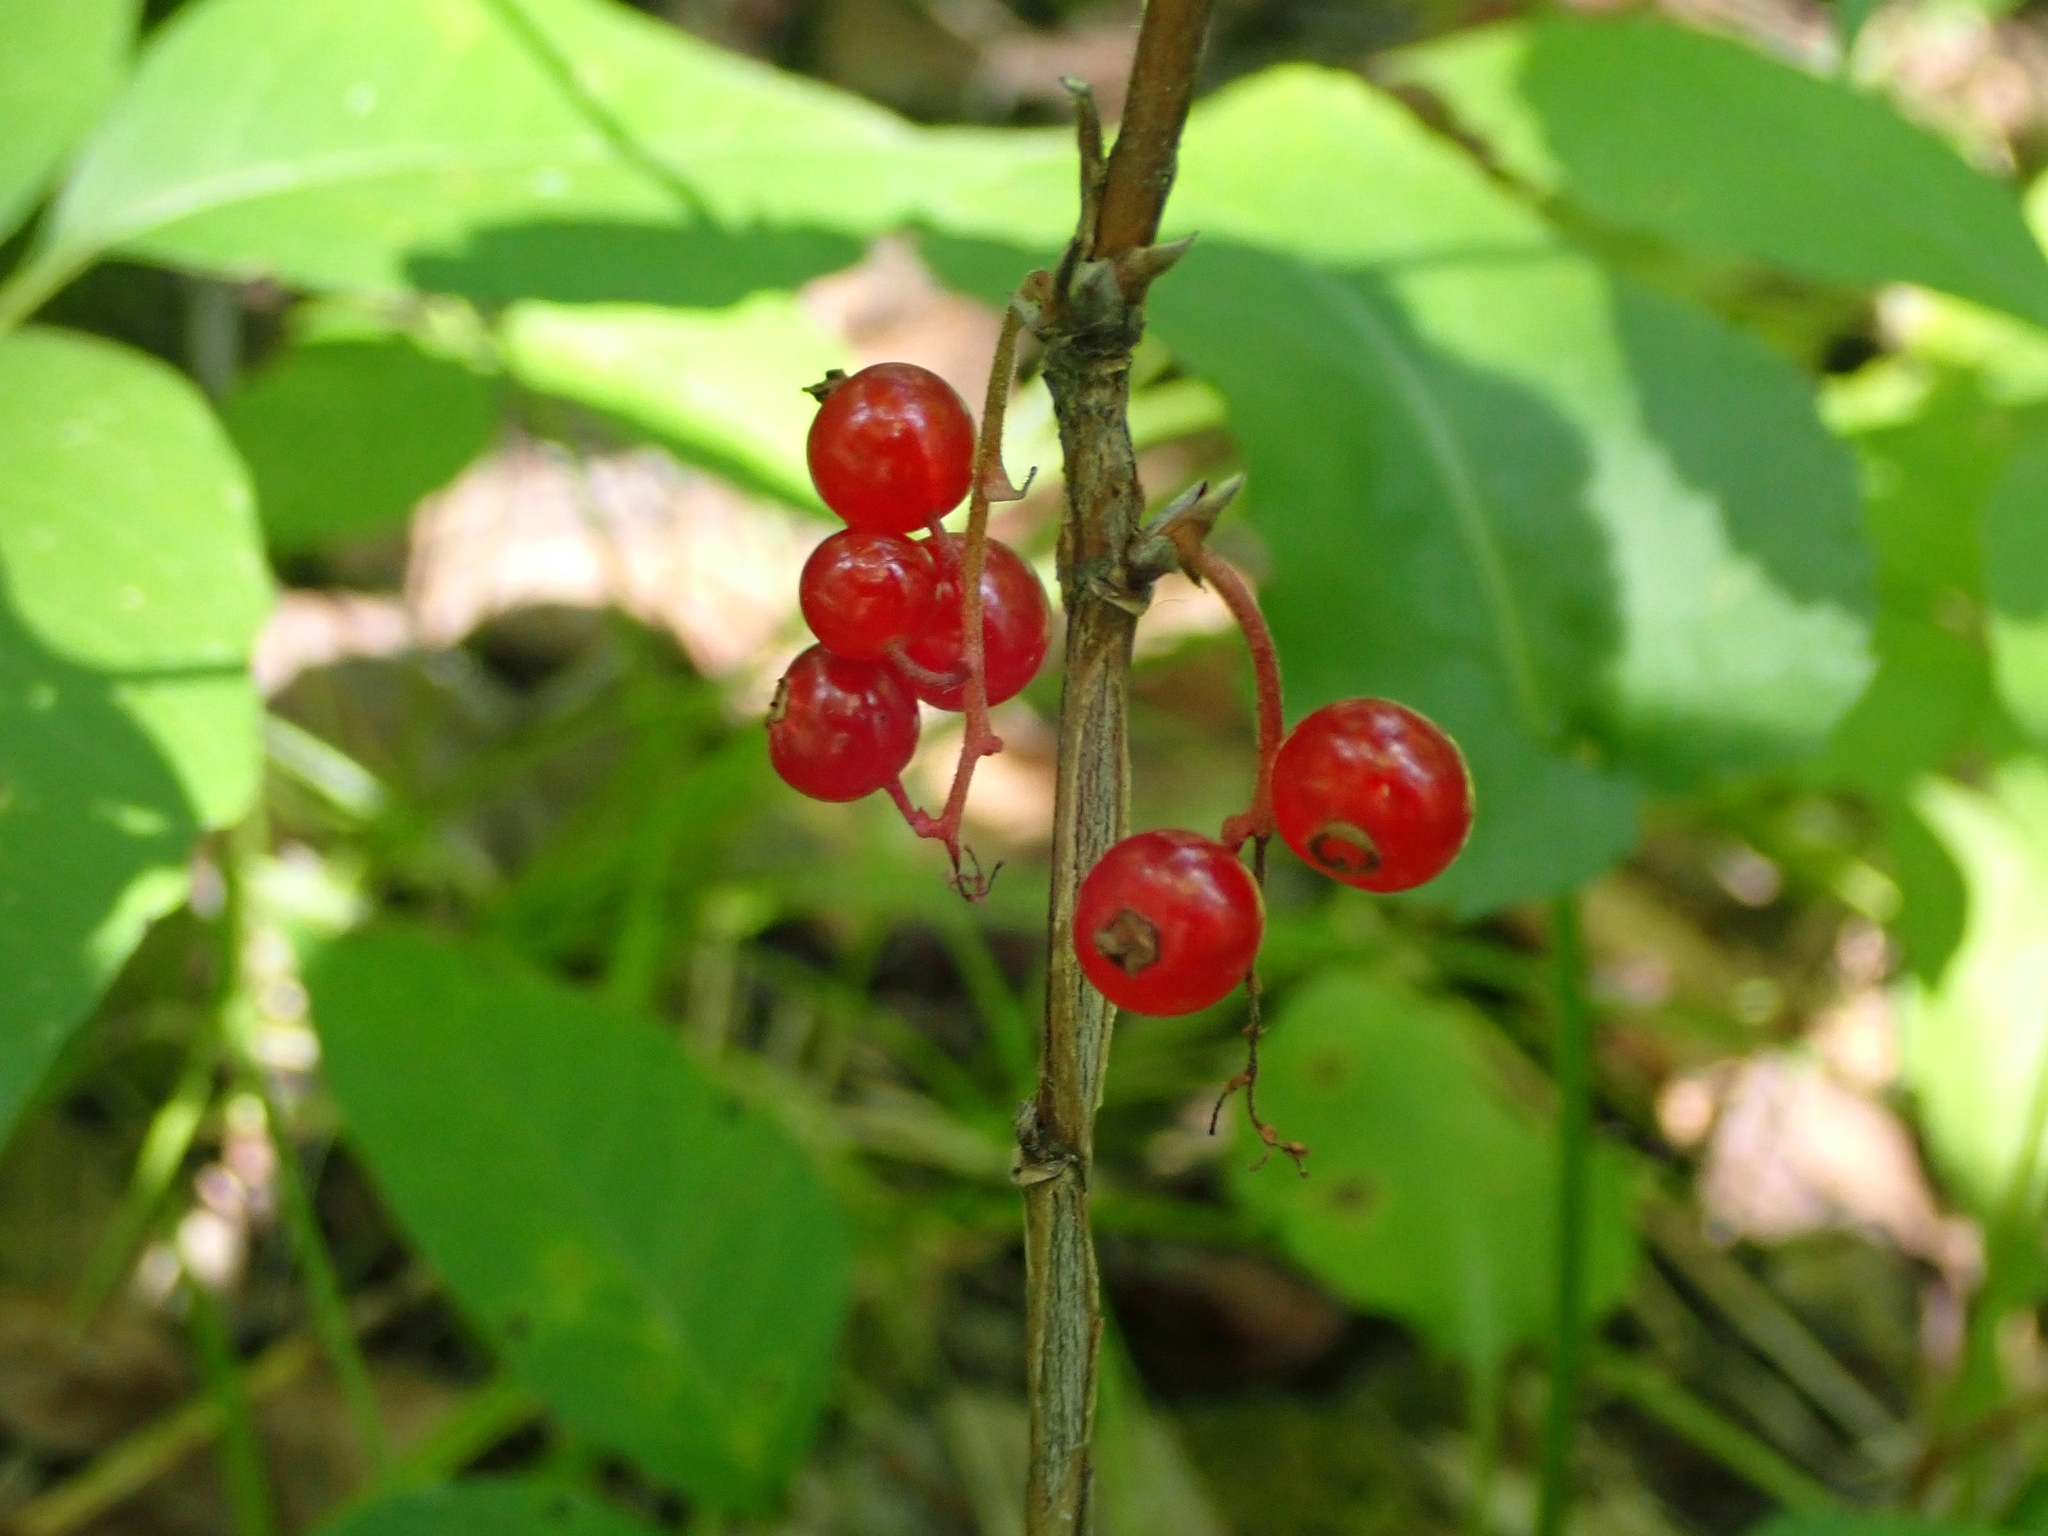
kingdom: Plantae
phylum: Tracheophyta
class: Magnoliopsida
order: Saxifragales
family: Grossulariaceae
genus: Ribes
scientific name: Ribes triste
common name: Swamp red currant
